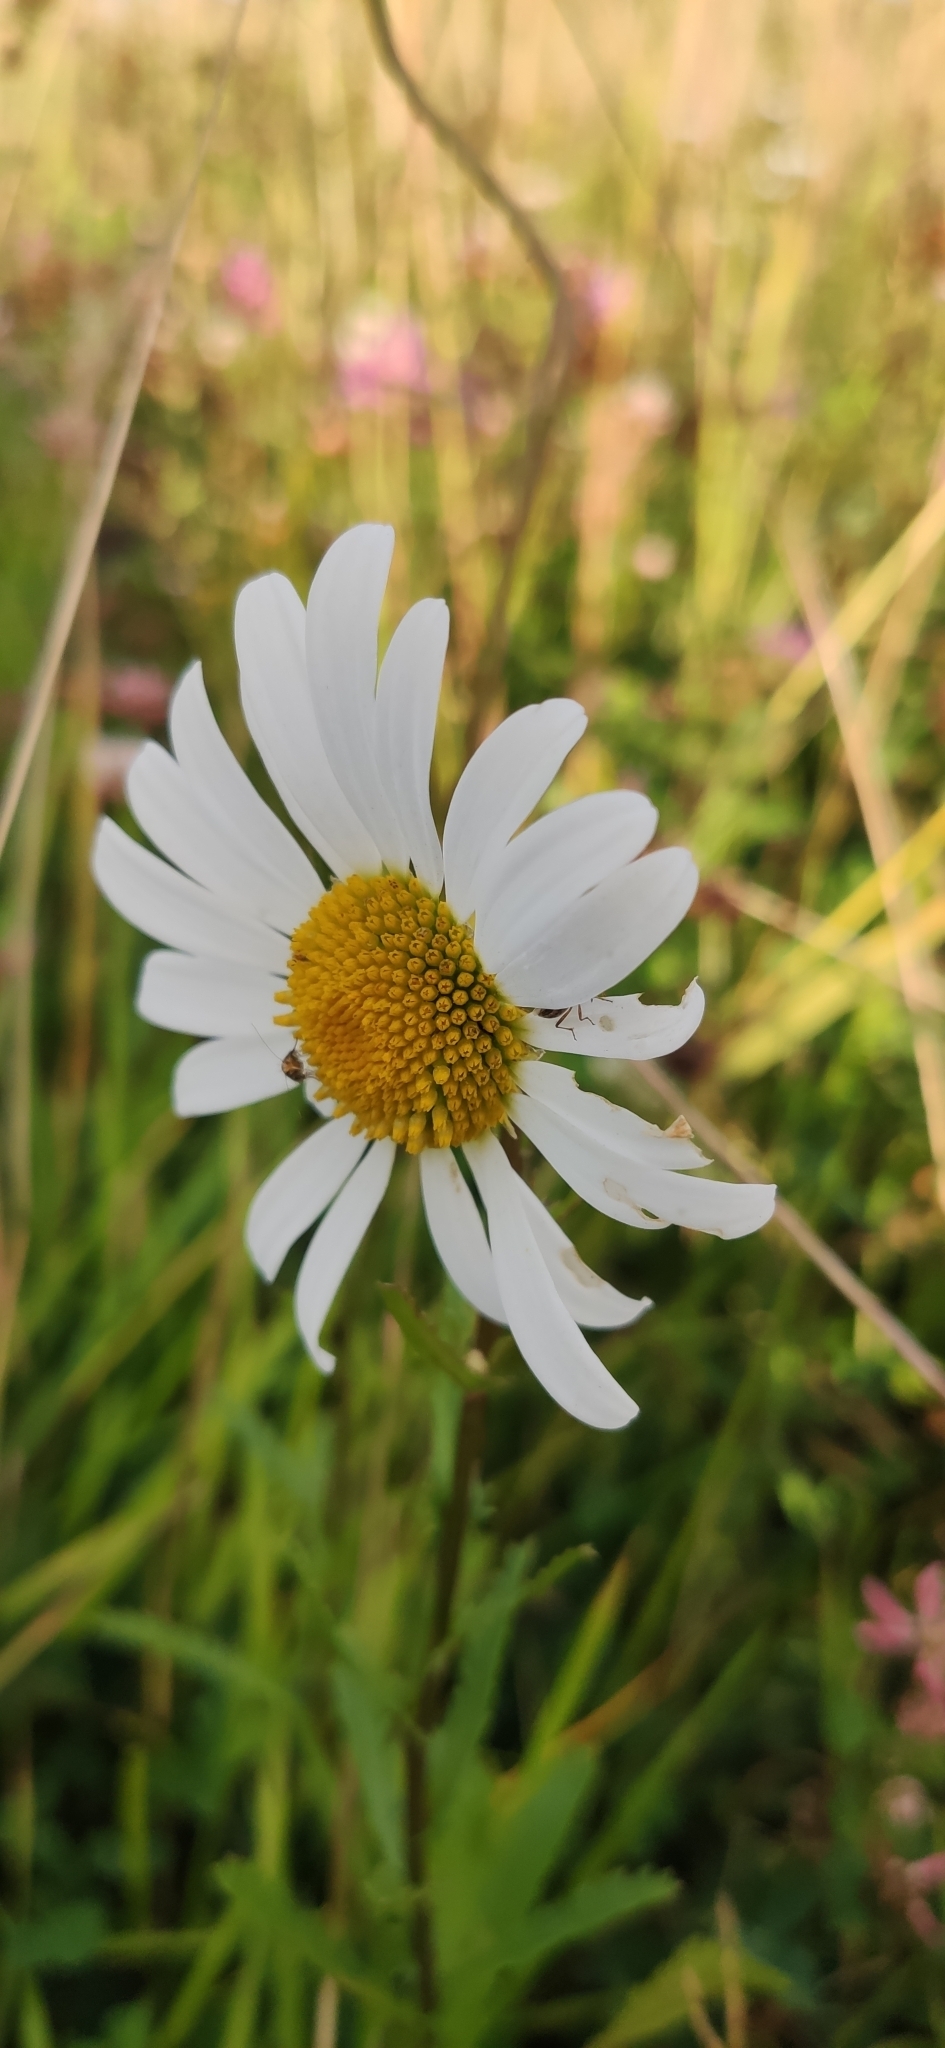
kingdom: Plantae
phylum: Tracheophyta
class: Magnoliopsida
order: Asterales
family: Asteraceae
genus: Leucanthemum
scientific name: Leucanthemum vulgare
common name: Oxeye daisy
